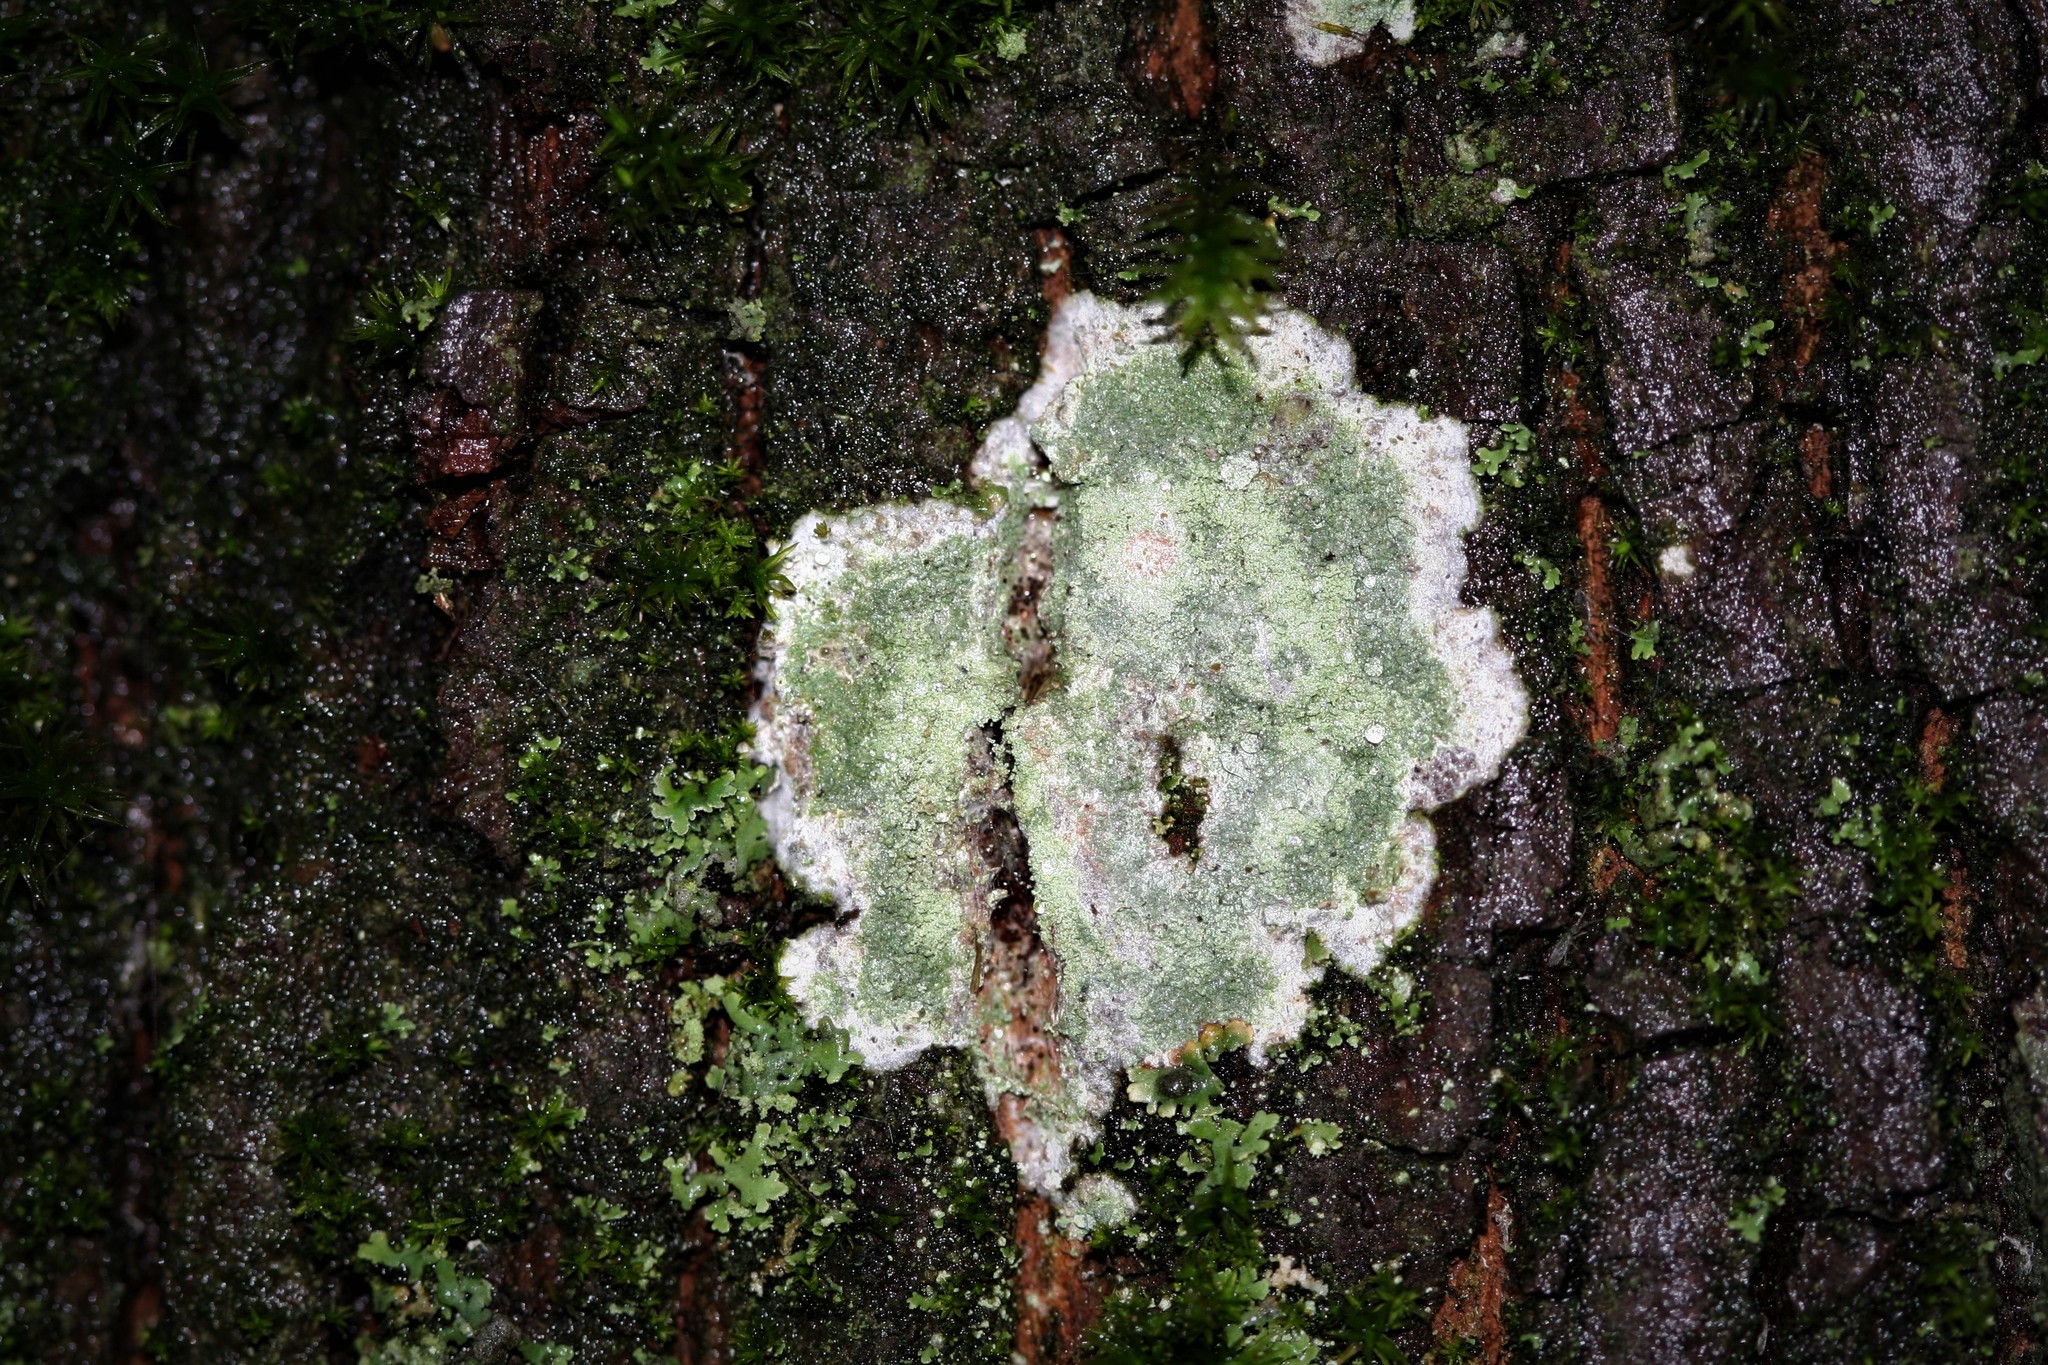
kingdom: Fungi
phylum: Ascomycota
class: Lecanoromycetes
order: Ostropales
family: Phlyctidaceae
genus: Phlyctis
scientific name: Phlyctis argena
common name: Whitewash lichen
